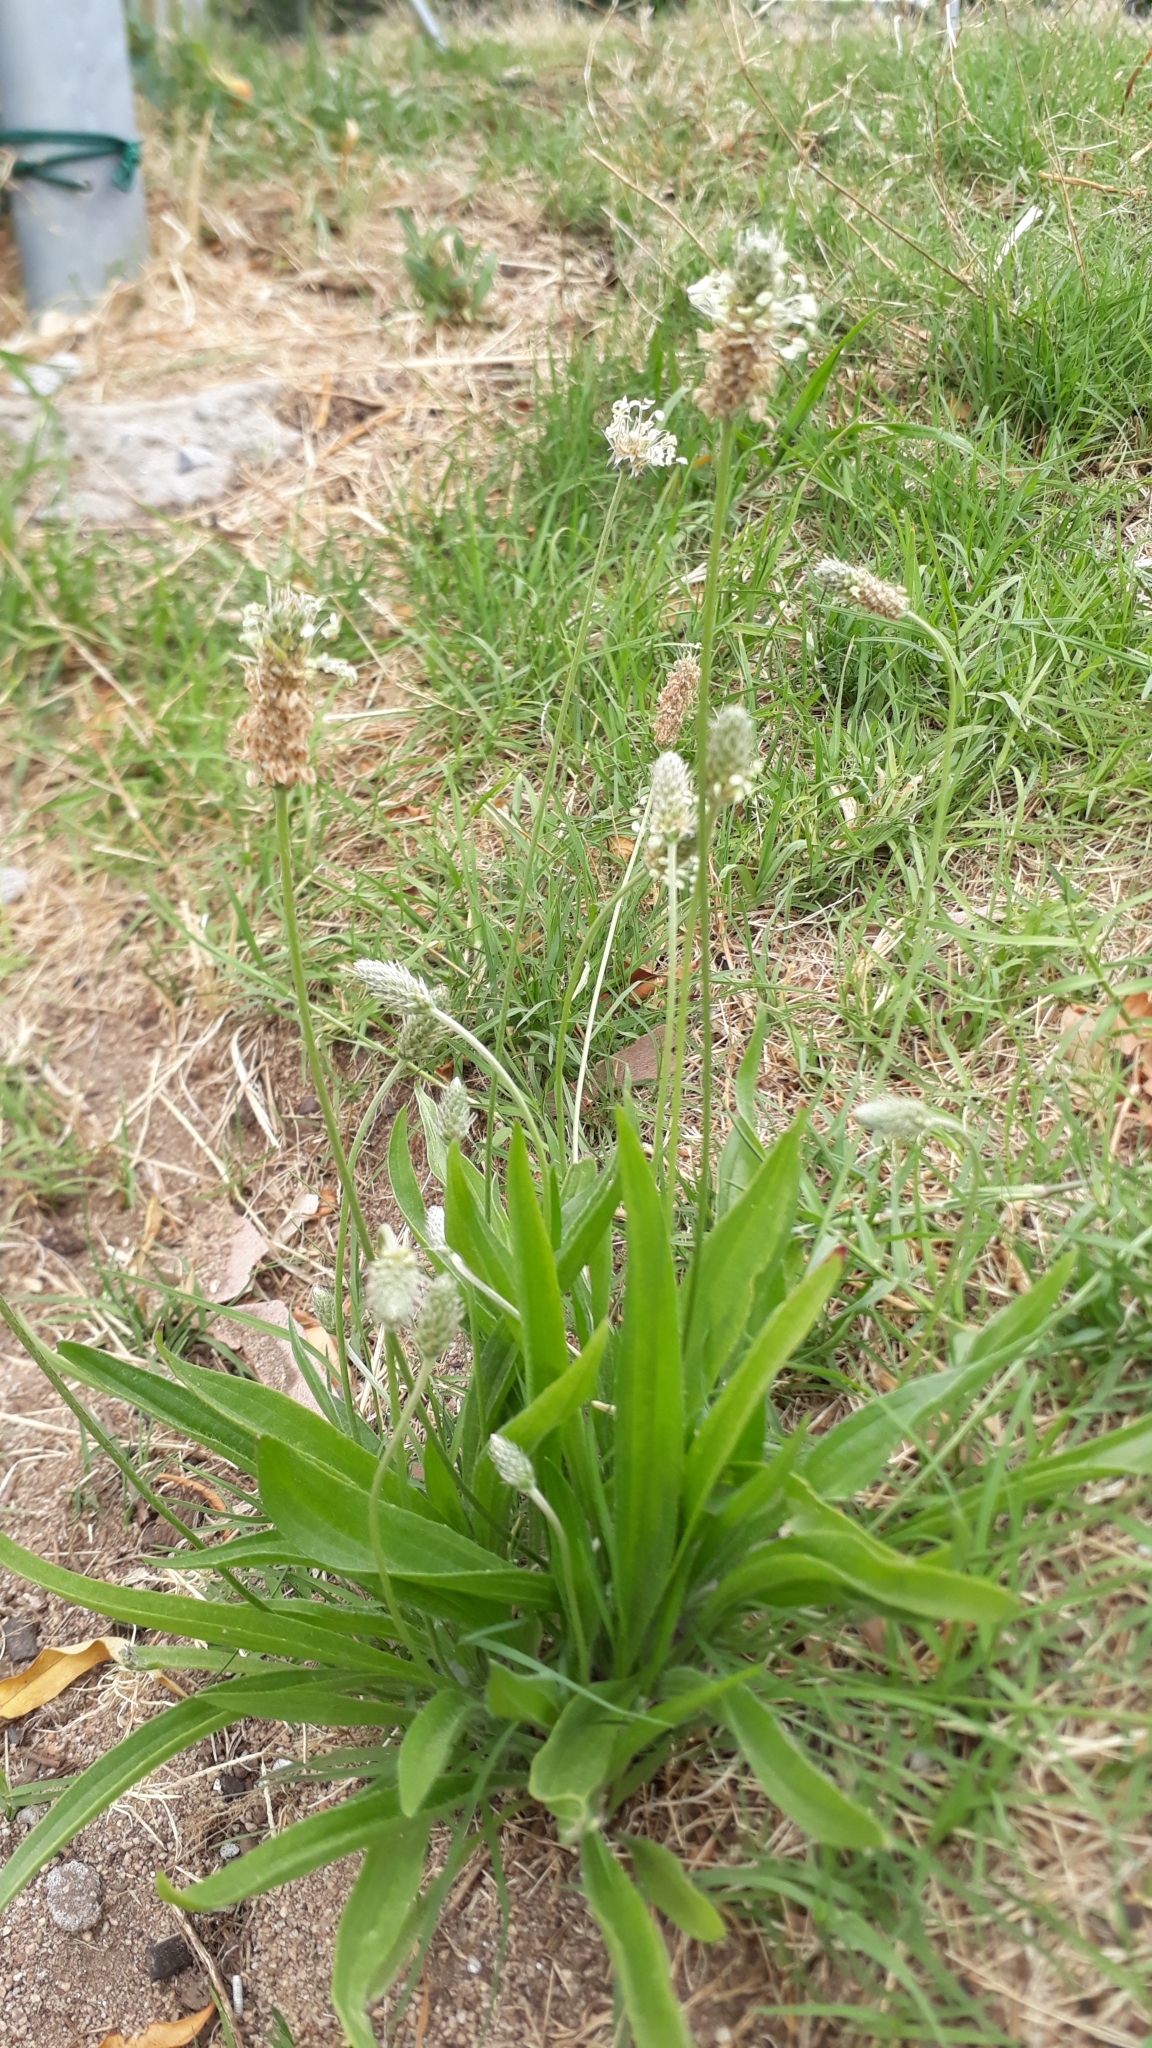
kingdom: Plantae
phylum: Tracheophyta
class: Magnoliopsida
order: Lamiales
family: Plantaginaceae
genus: Plantago
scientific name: Plantago lanceolata
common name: Ribwort plantain
